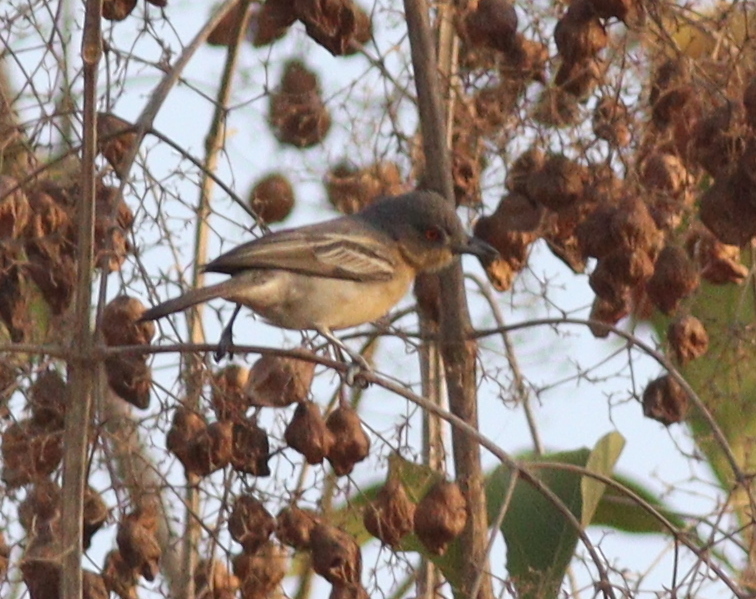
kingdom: Animalia
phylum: Chordata
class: Aves
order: Passeriformes
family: Malaconotidae
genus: Dryoscopus
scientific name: Dryoscopus gambensis
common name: Northern puffback
